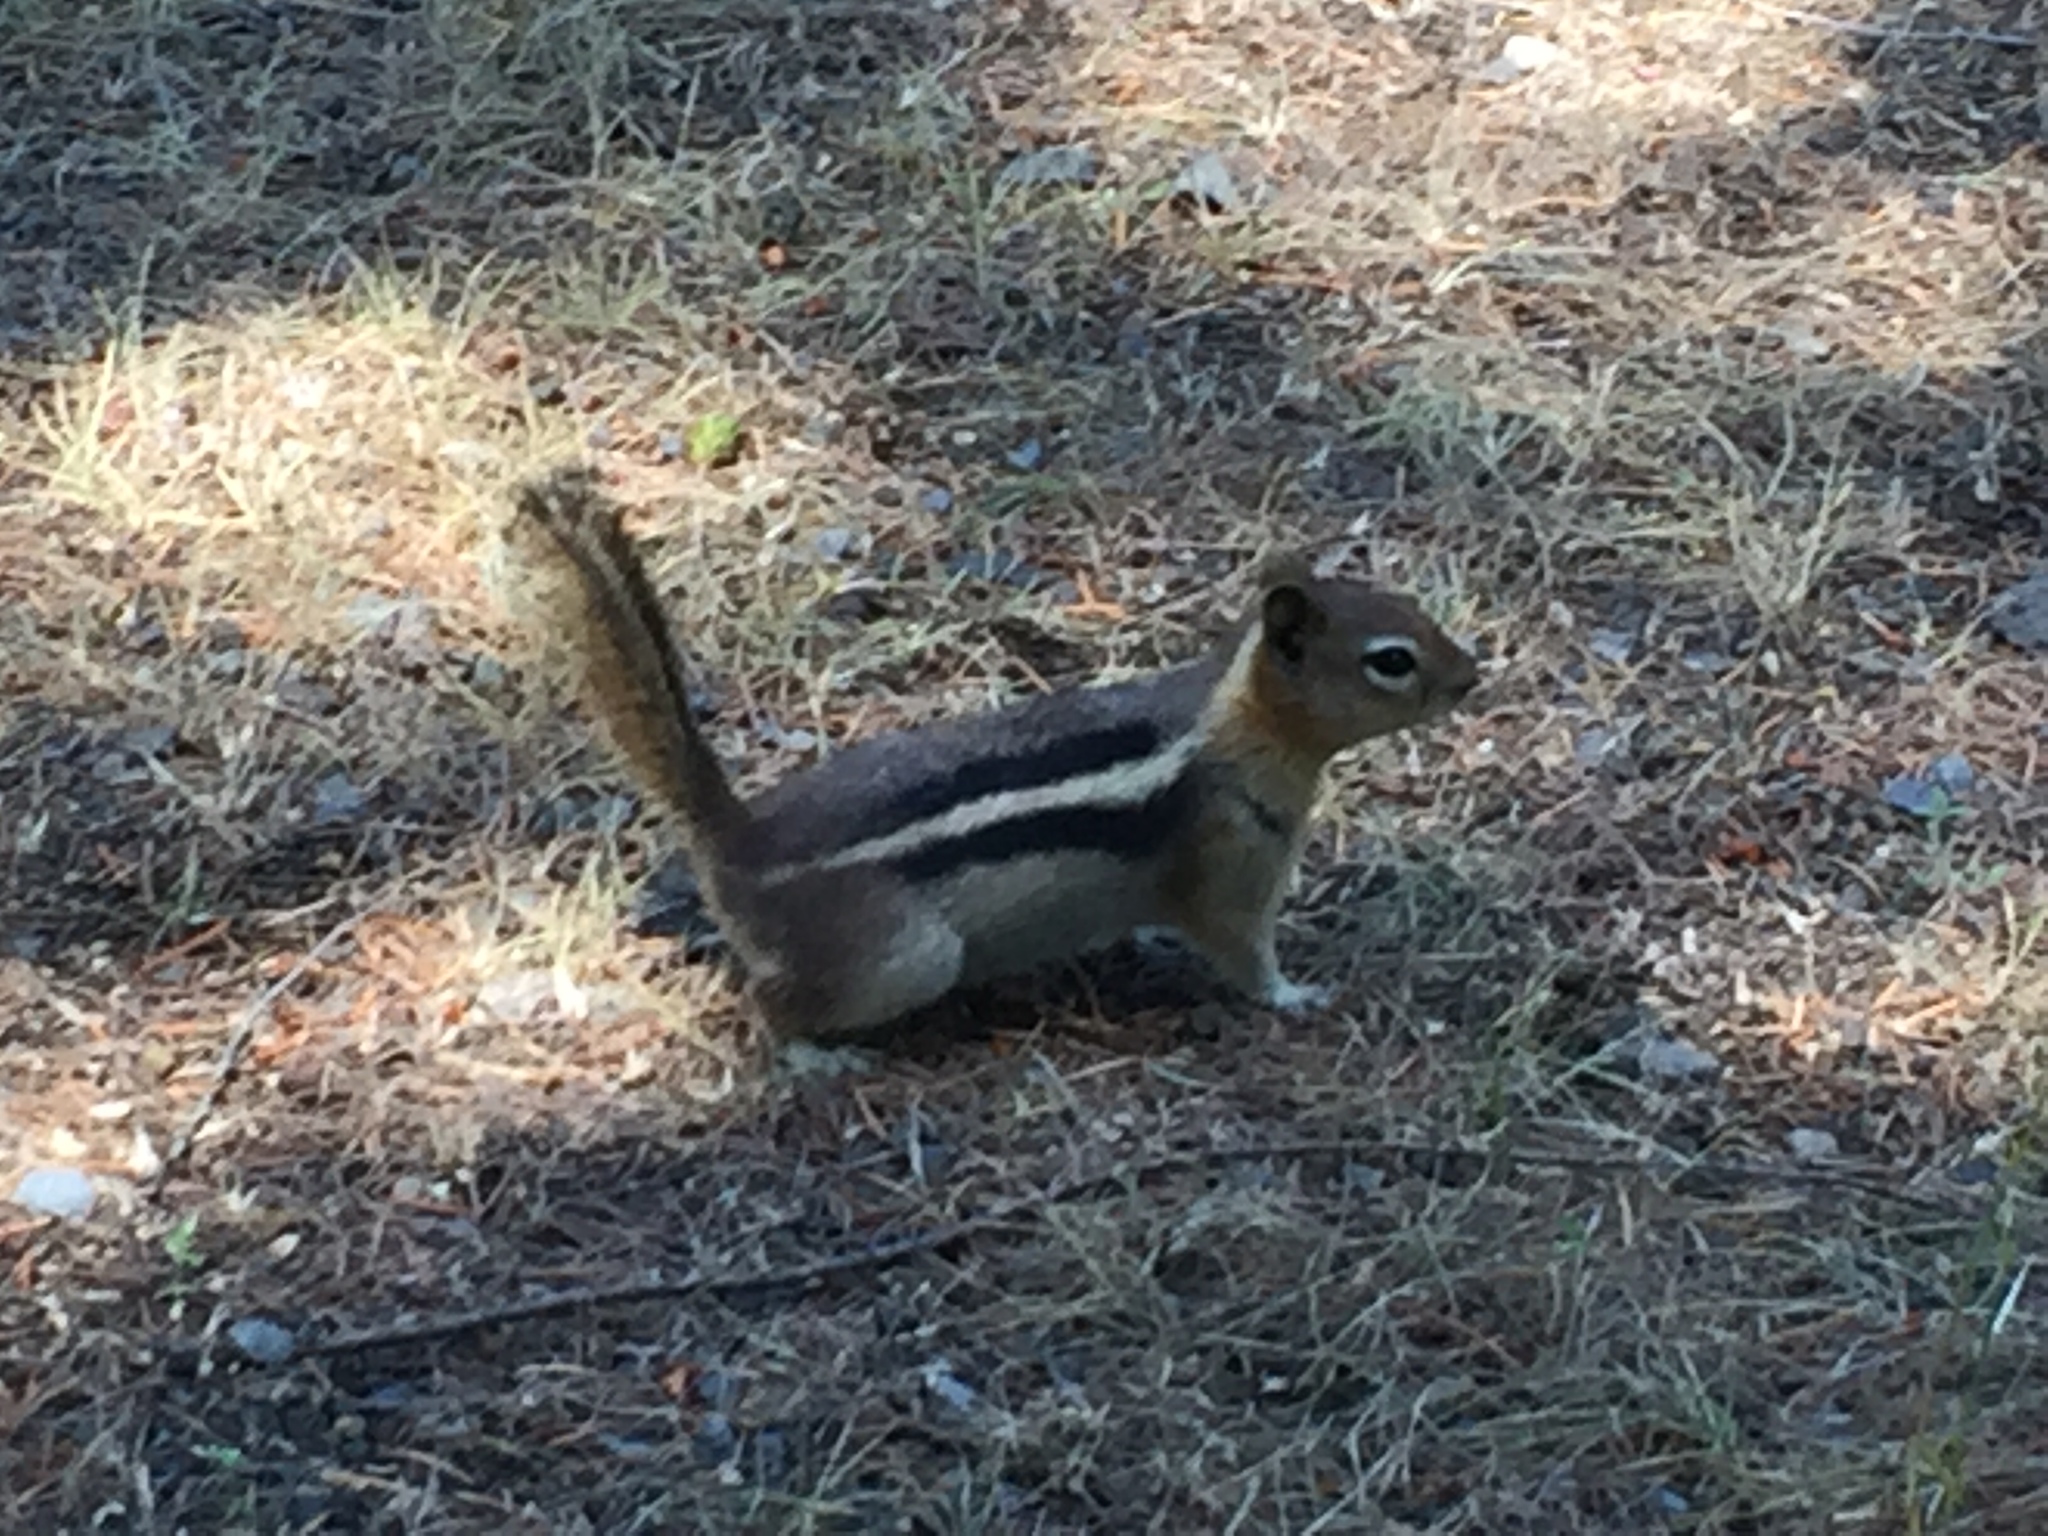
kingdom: Animalia
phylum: Chordata
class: Mammalia
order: Rodentia
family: Sciuridae
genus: Callospermophilus
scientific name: Callospermophilus lateralis
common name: Golden-mantled ground squirrel
